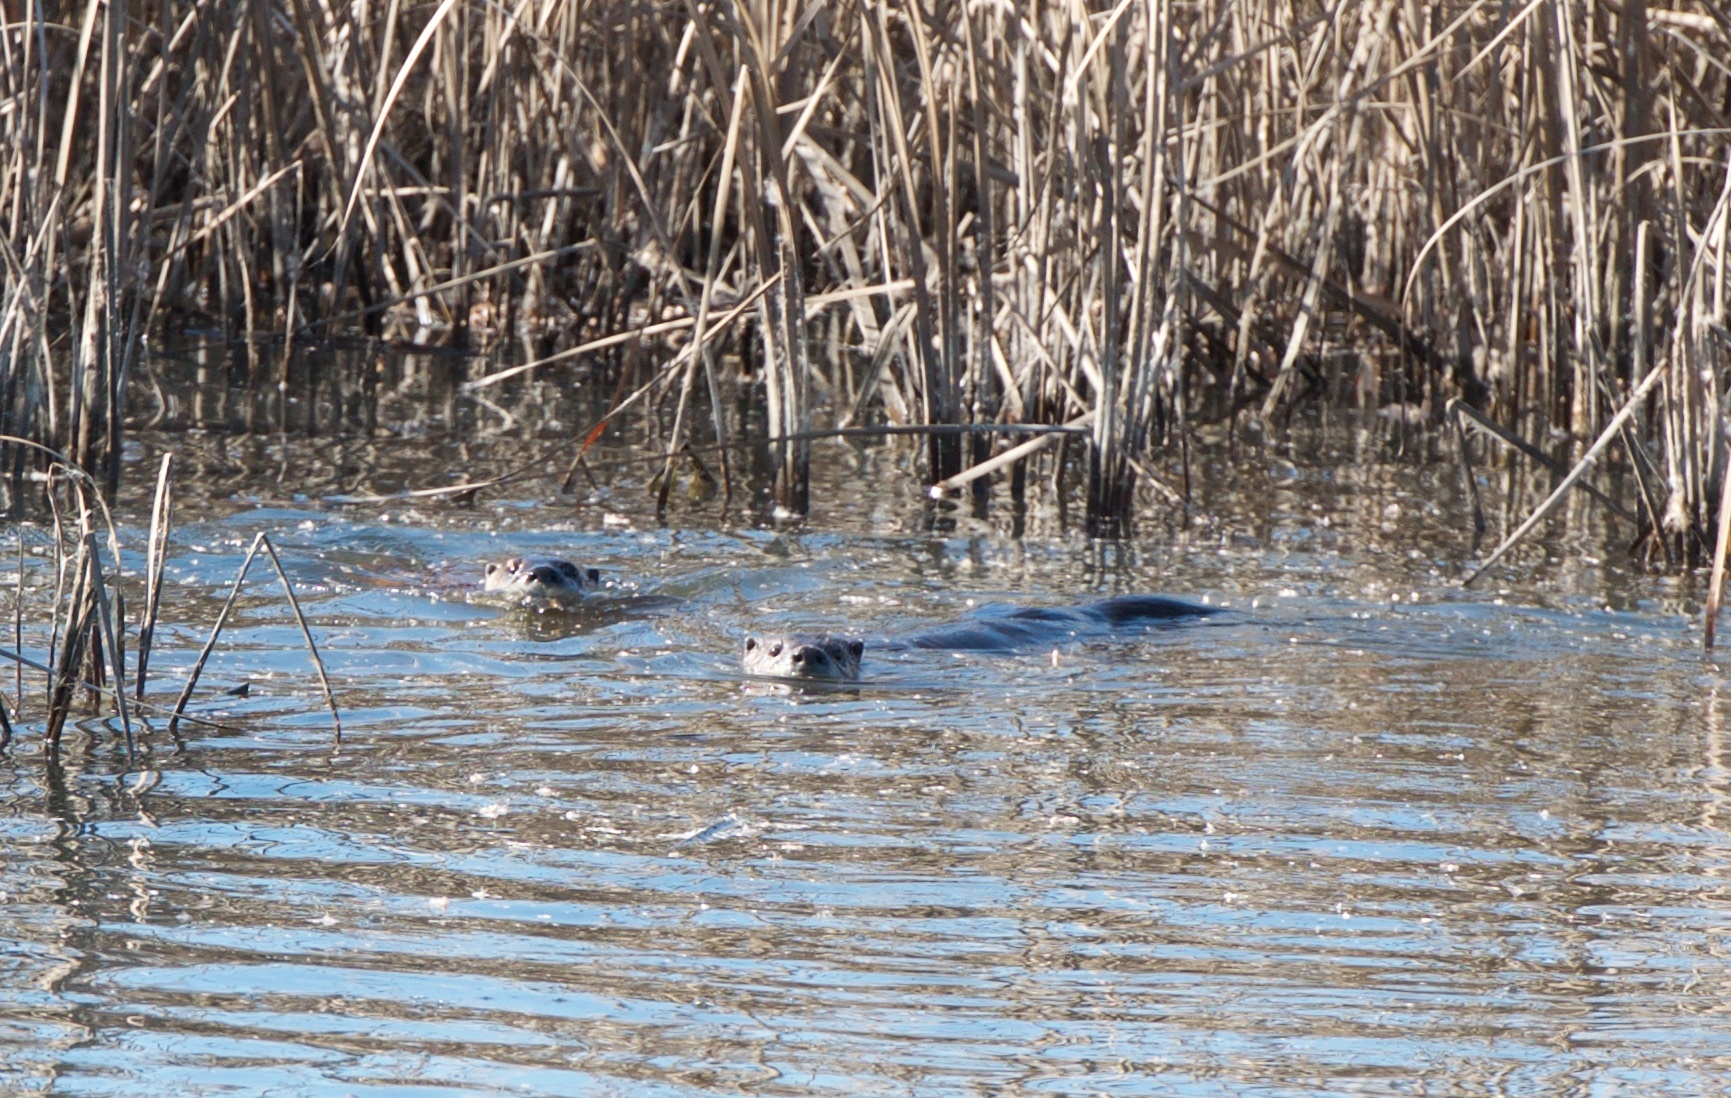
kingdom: Animalia
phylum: Chordata
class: Mammalia
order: Carnivora
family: Mustelidae
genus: Lontra
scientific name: Lontra canadensis
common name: North american river otter
